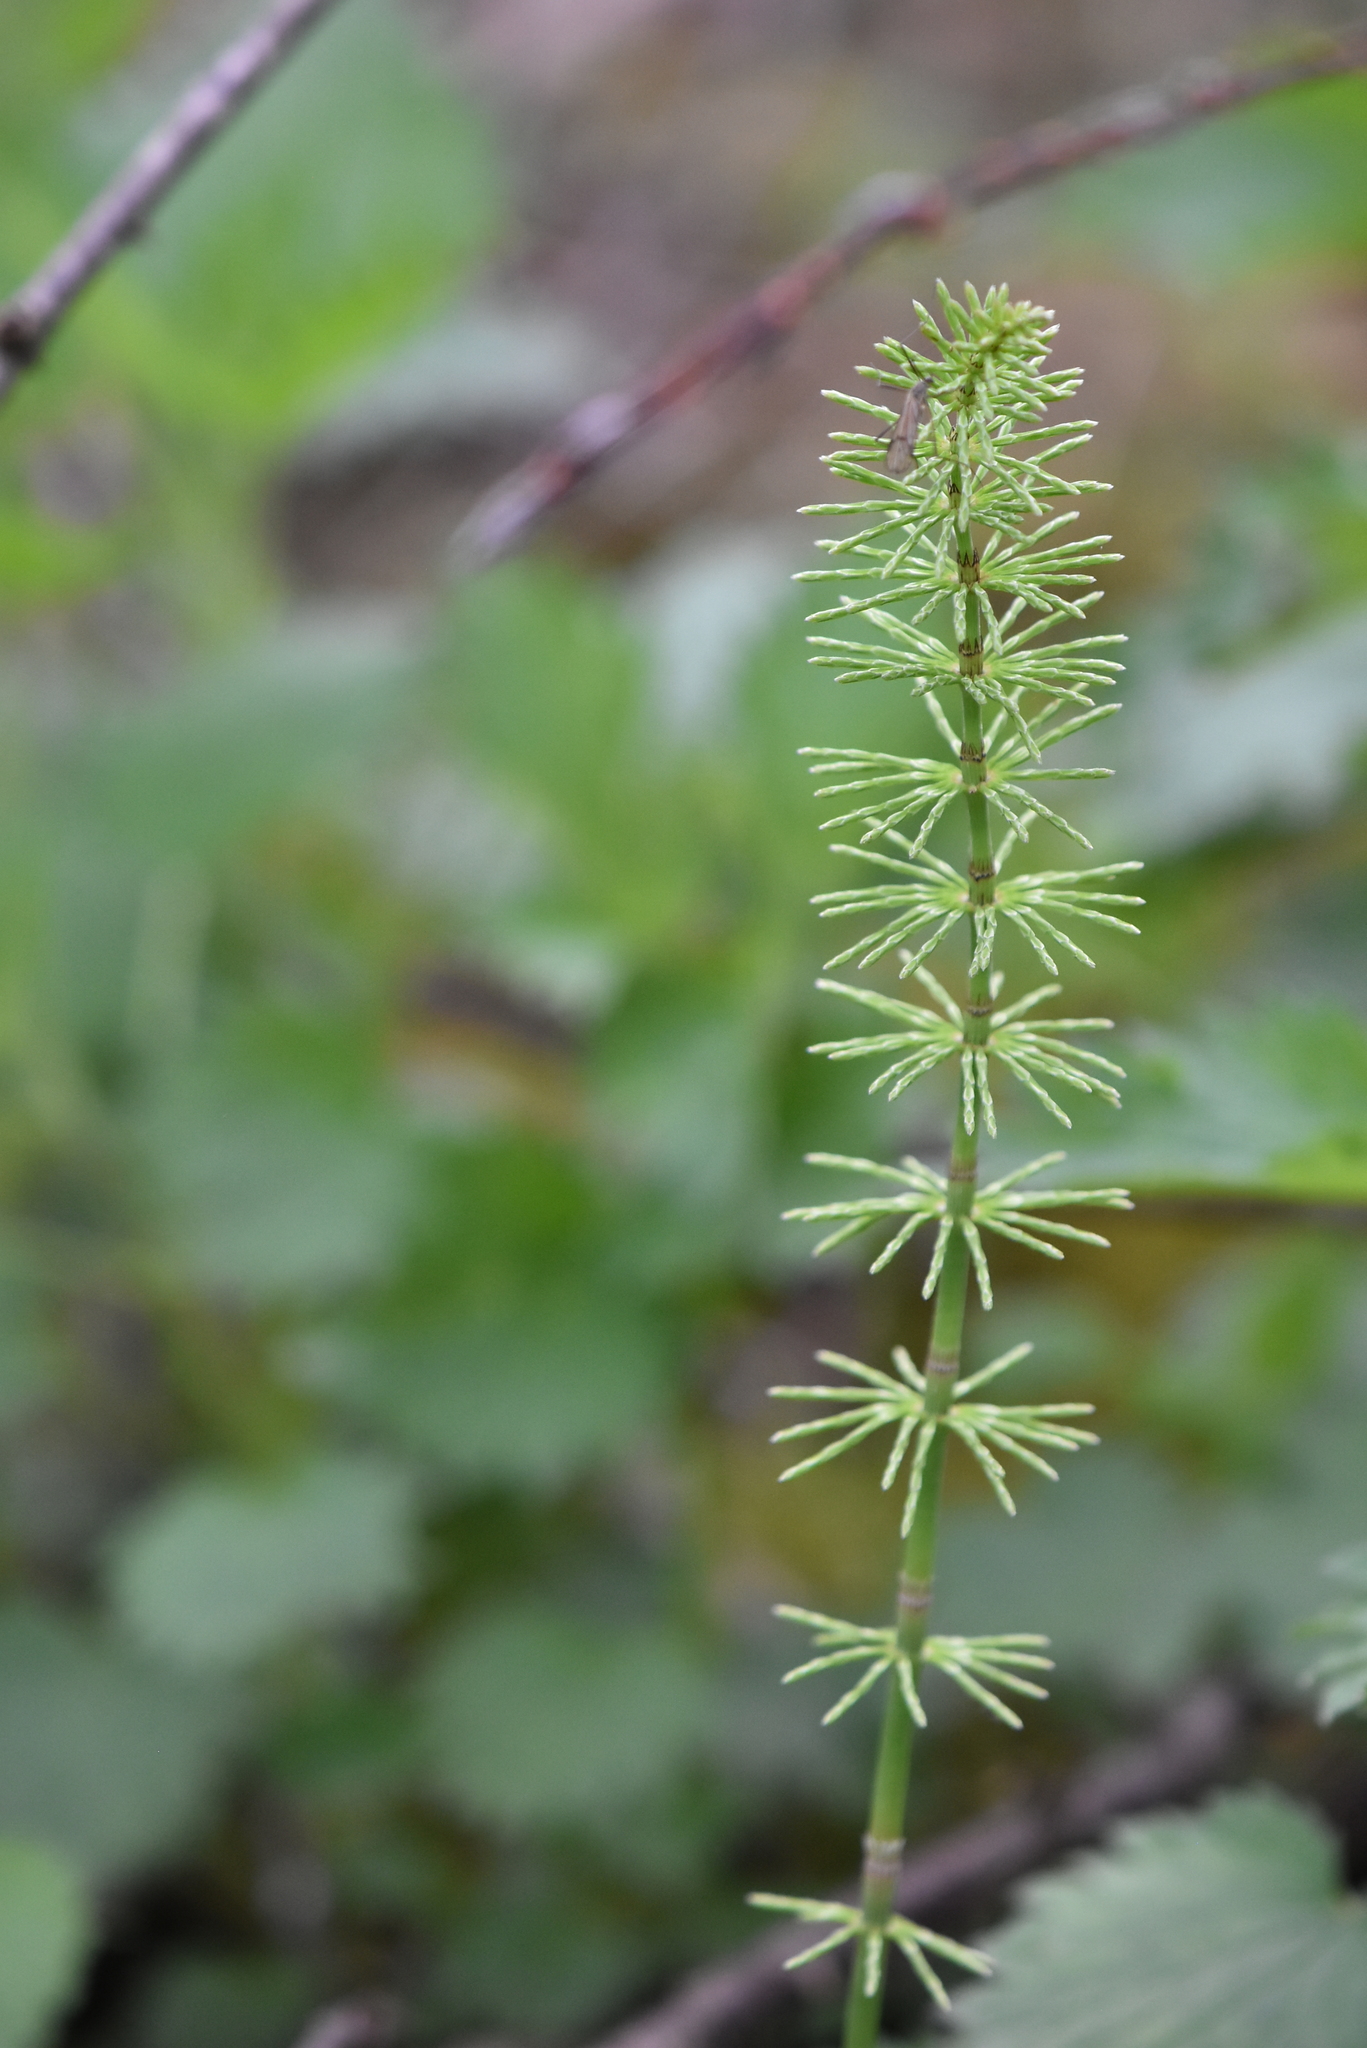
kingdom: Plantae
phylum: Tracheophyta
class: Polypodiopsida
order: Equisetales
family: Equisetaceae
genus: Equisetum
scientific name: Equisetum pratense
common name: Meadow horsetail
